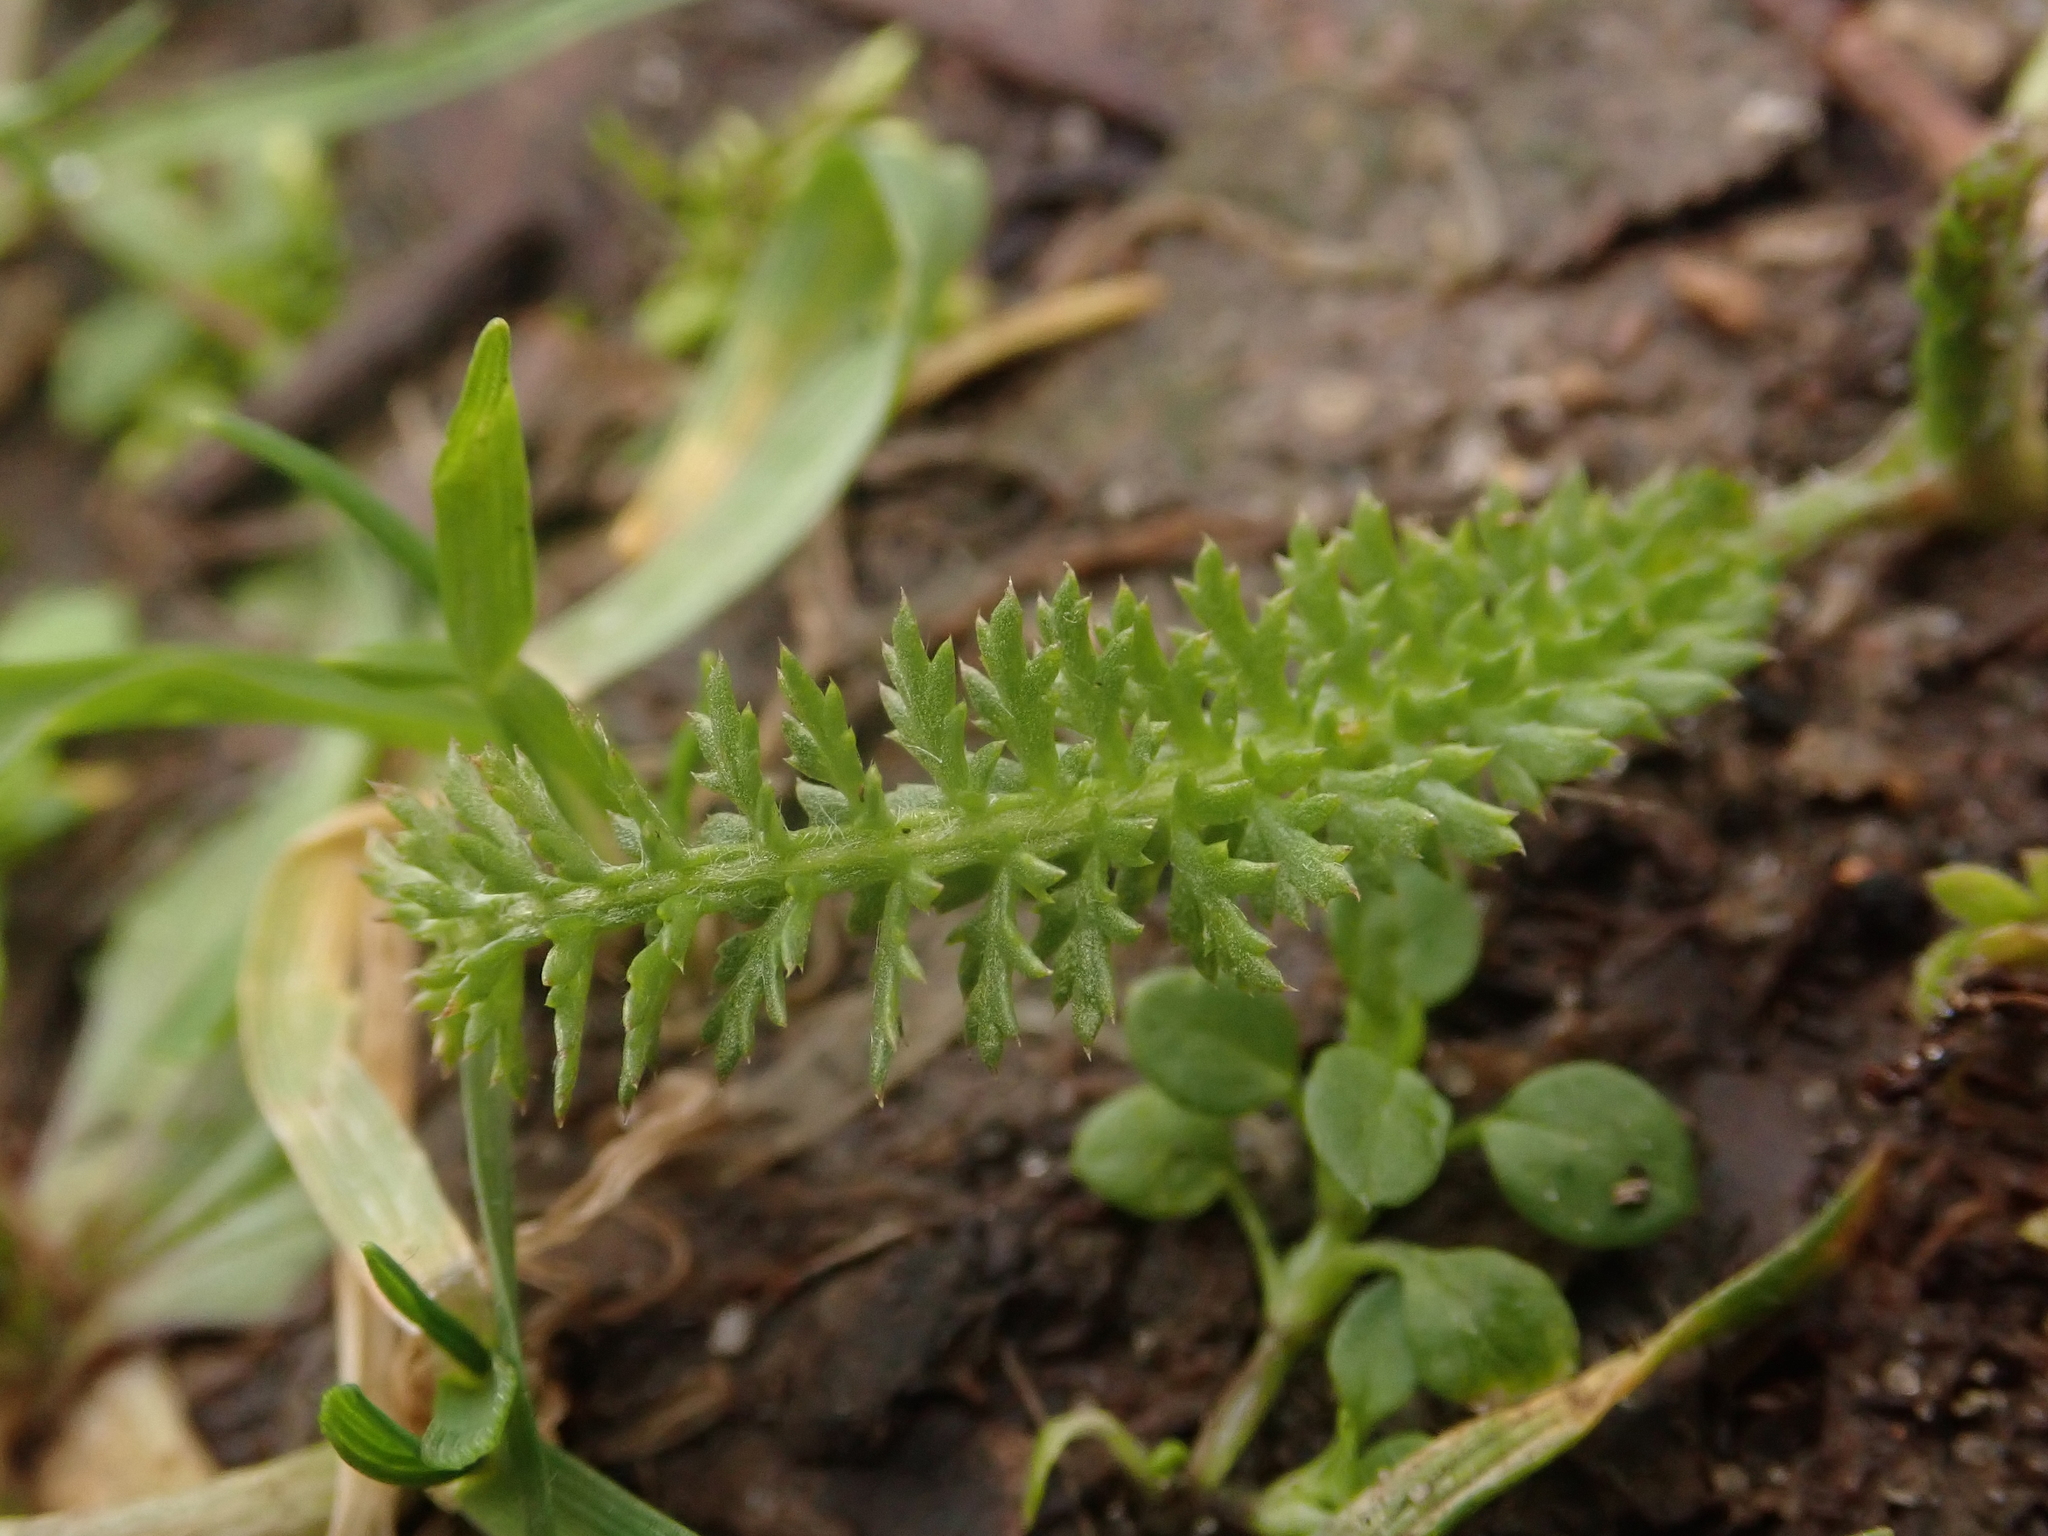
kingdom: Plantae
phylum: Tracheophyta
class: Magnoliopsida
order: Asterales
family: Asteraceae
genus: Achillea
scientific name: Achillea millefolium
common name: Yarrow
